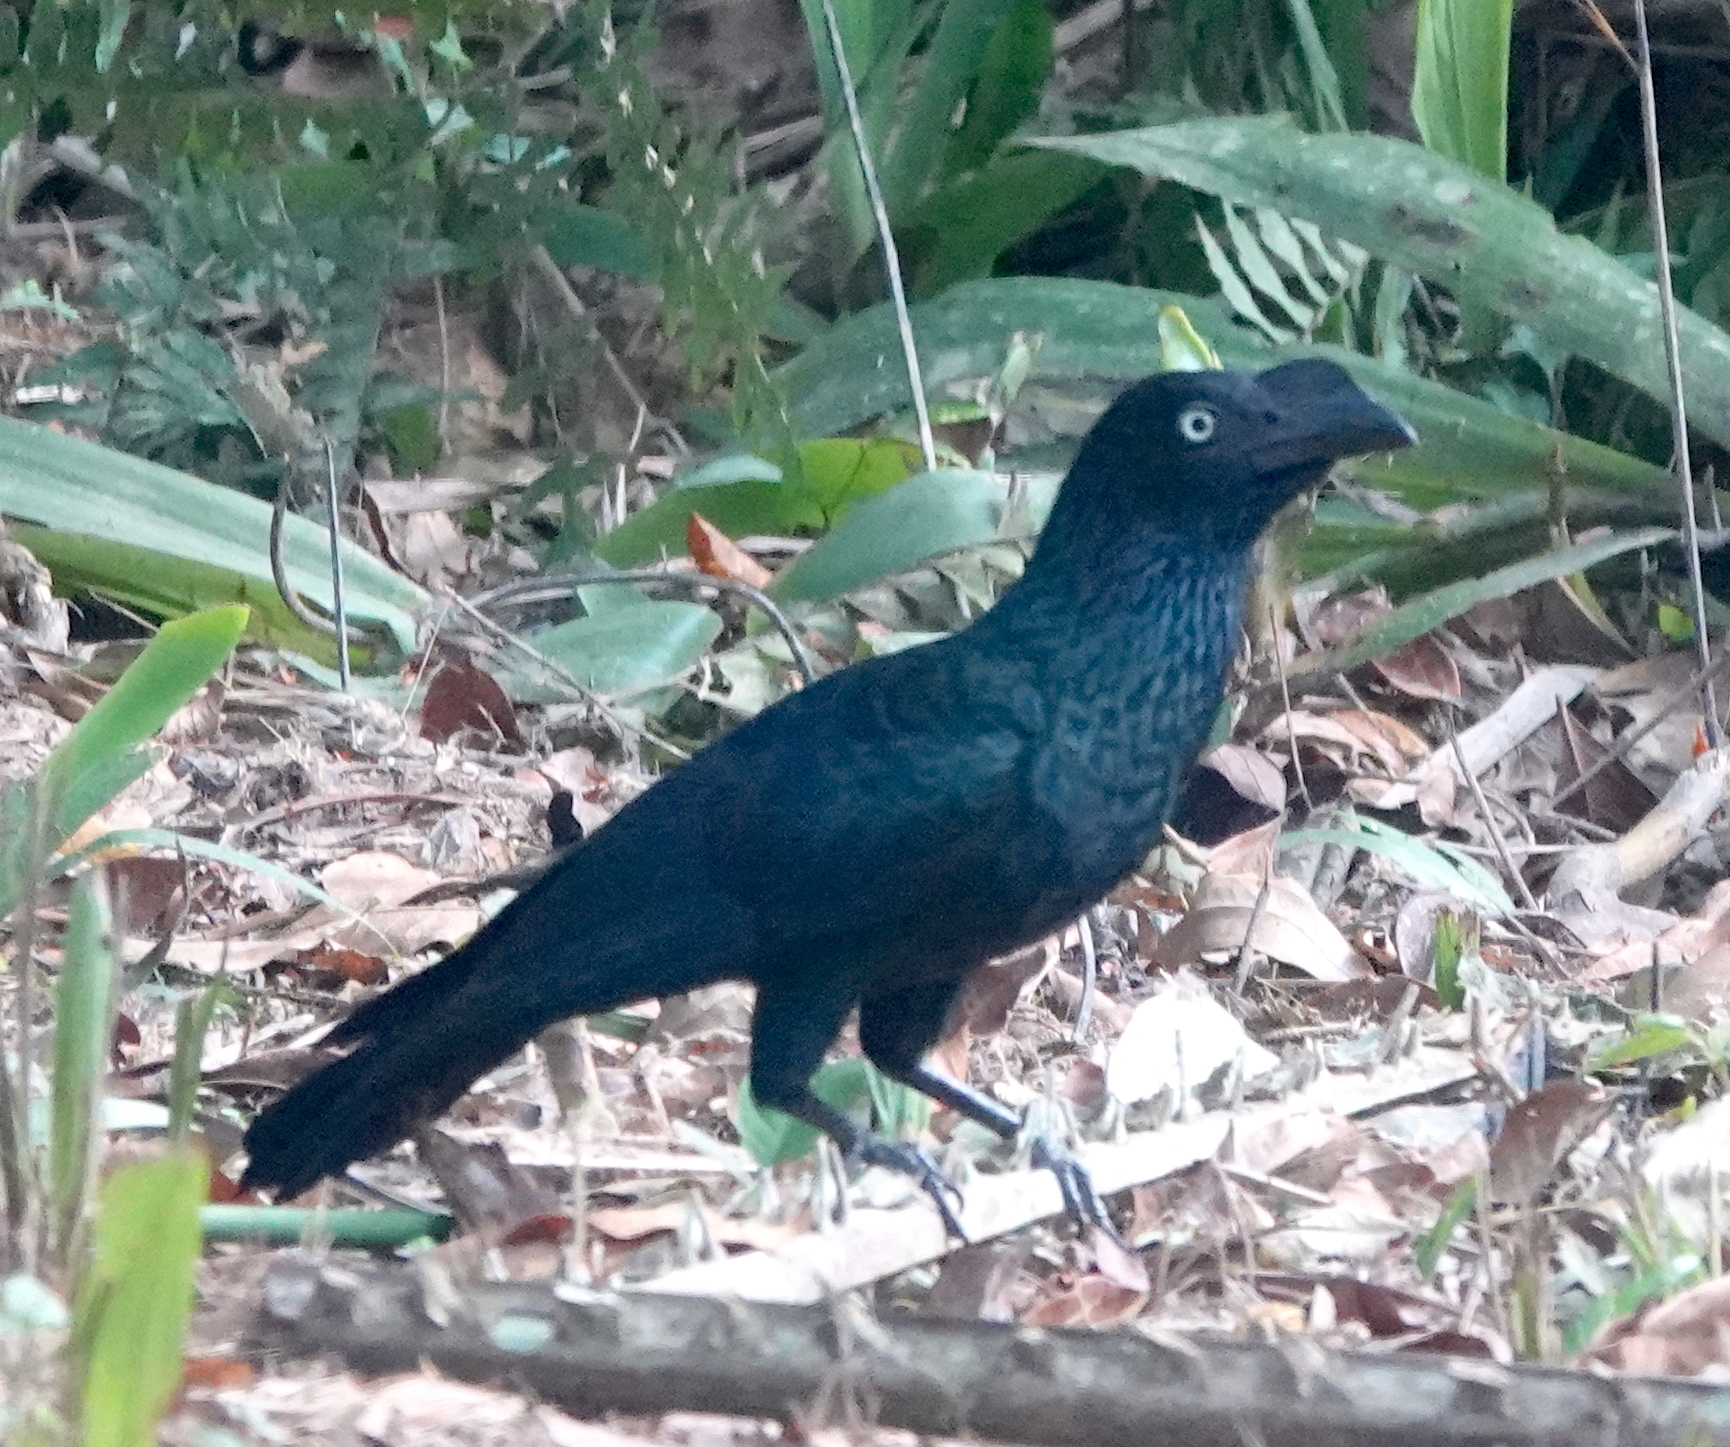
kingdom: Animalia
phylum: Chordata
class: Aves
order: Cuculiformes
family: Cuculidae
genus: Crotophaga
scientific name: Crotophaga major
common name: Greater ani
